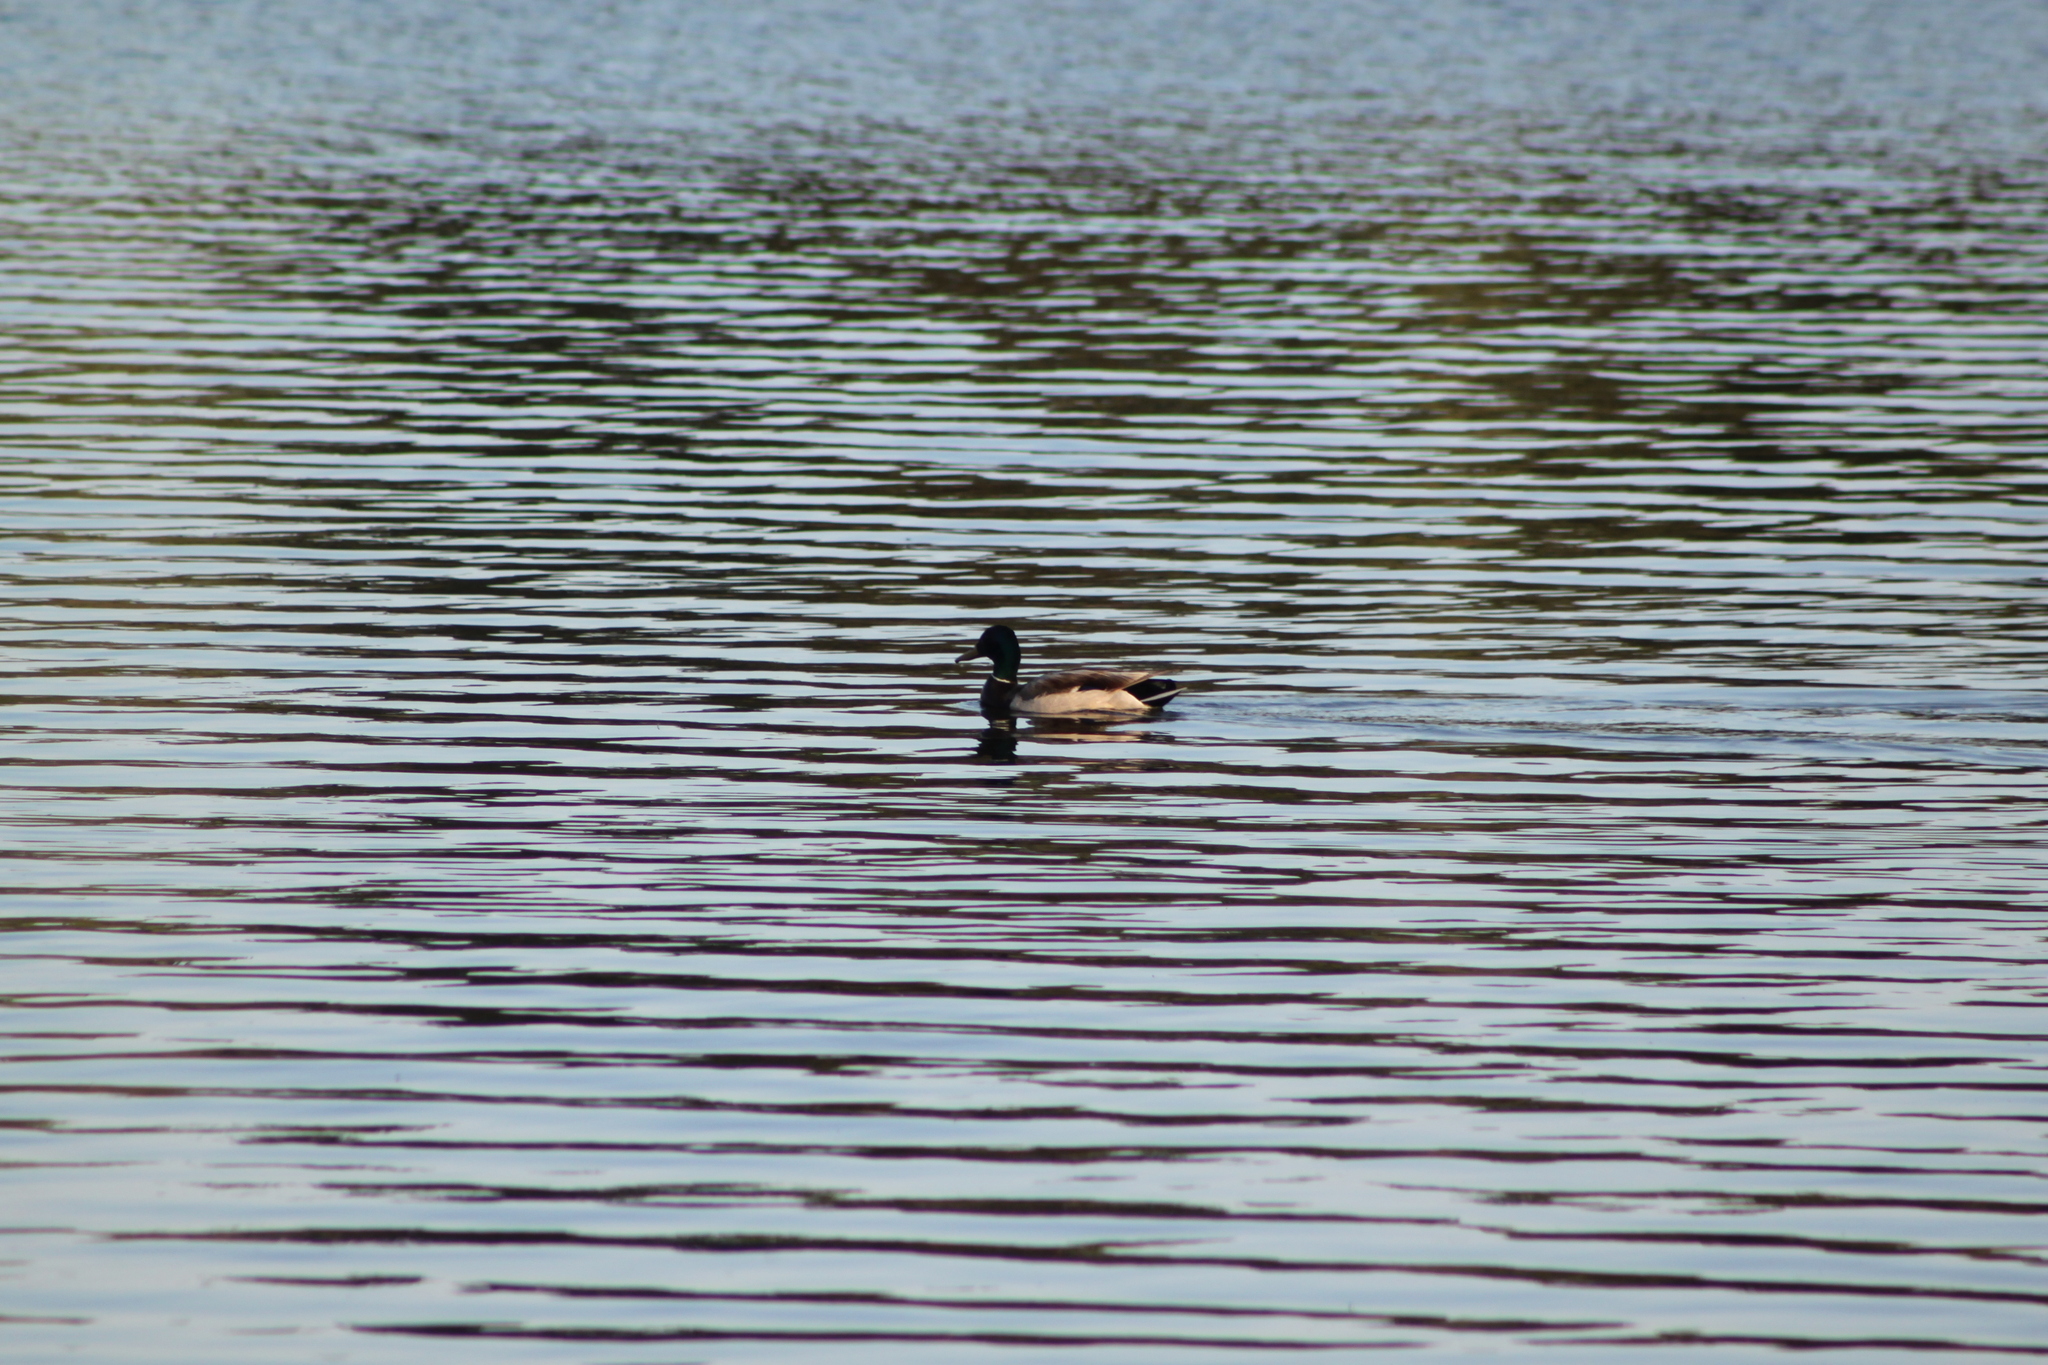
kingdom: Animalia
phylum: Chordata
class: Aves
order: Anseriformes
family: Anatidae
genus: Anas
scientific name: Anas platyrhynchos
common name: Mallard
